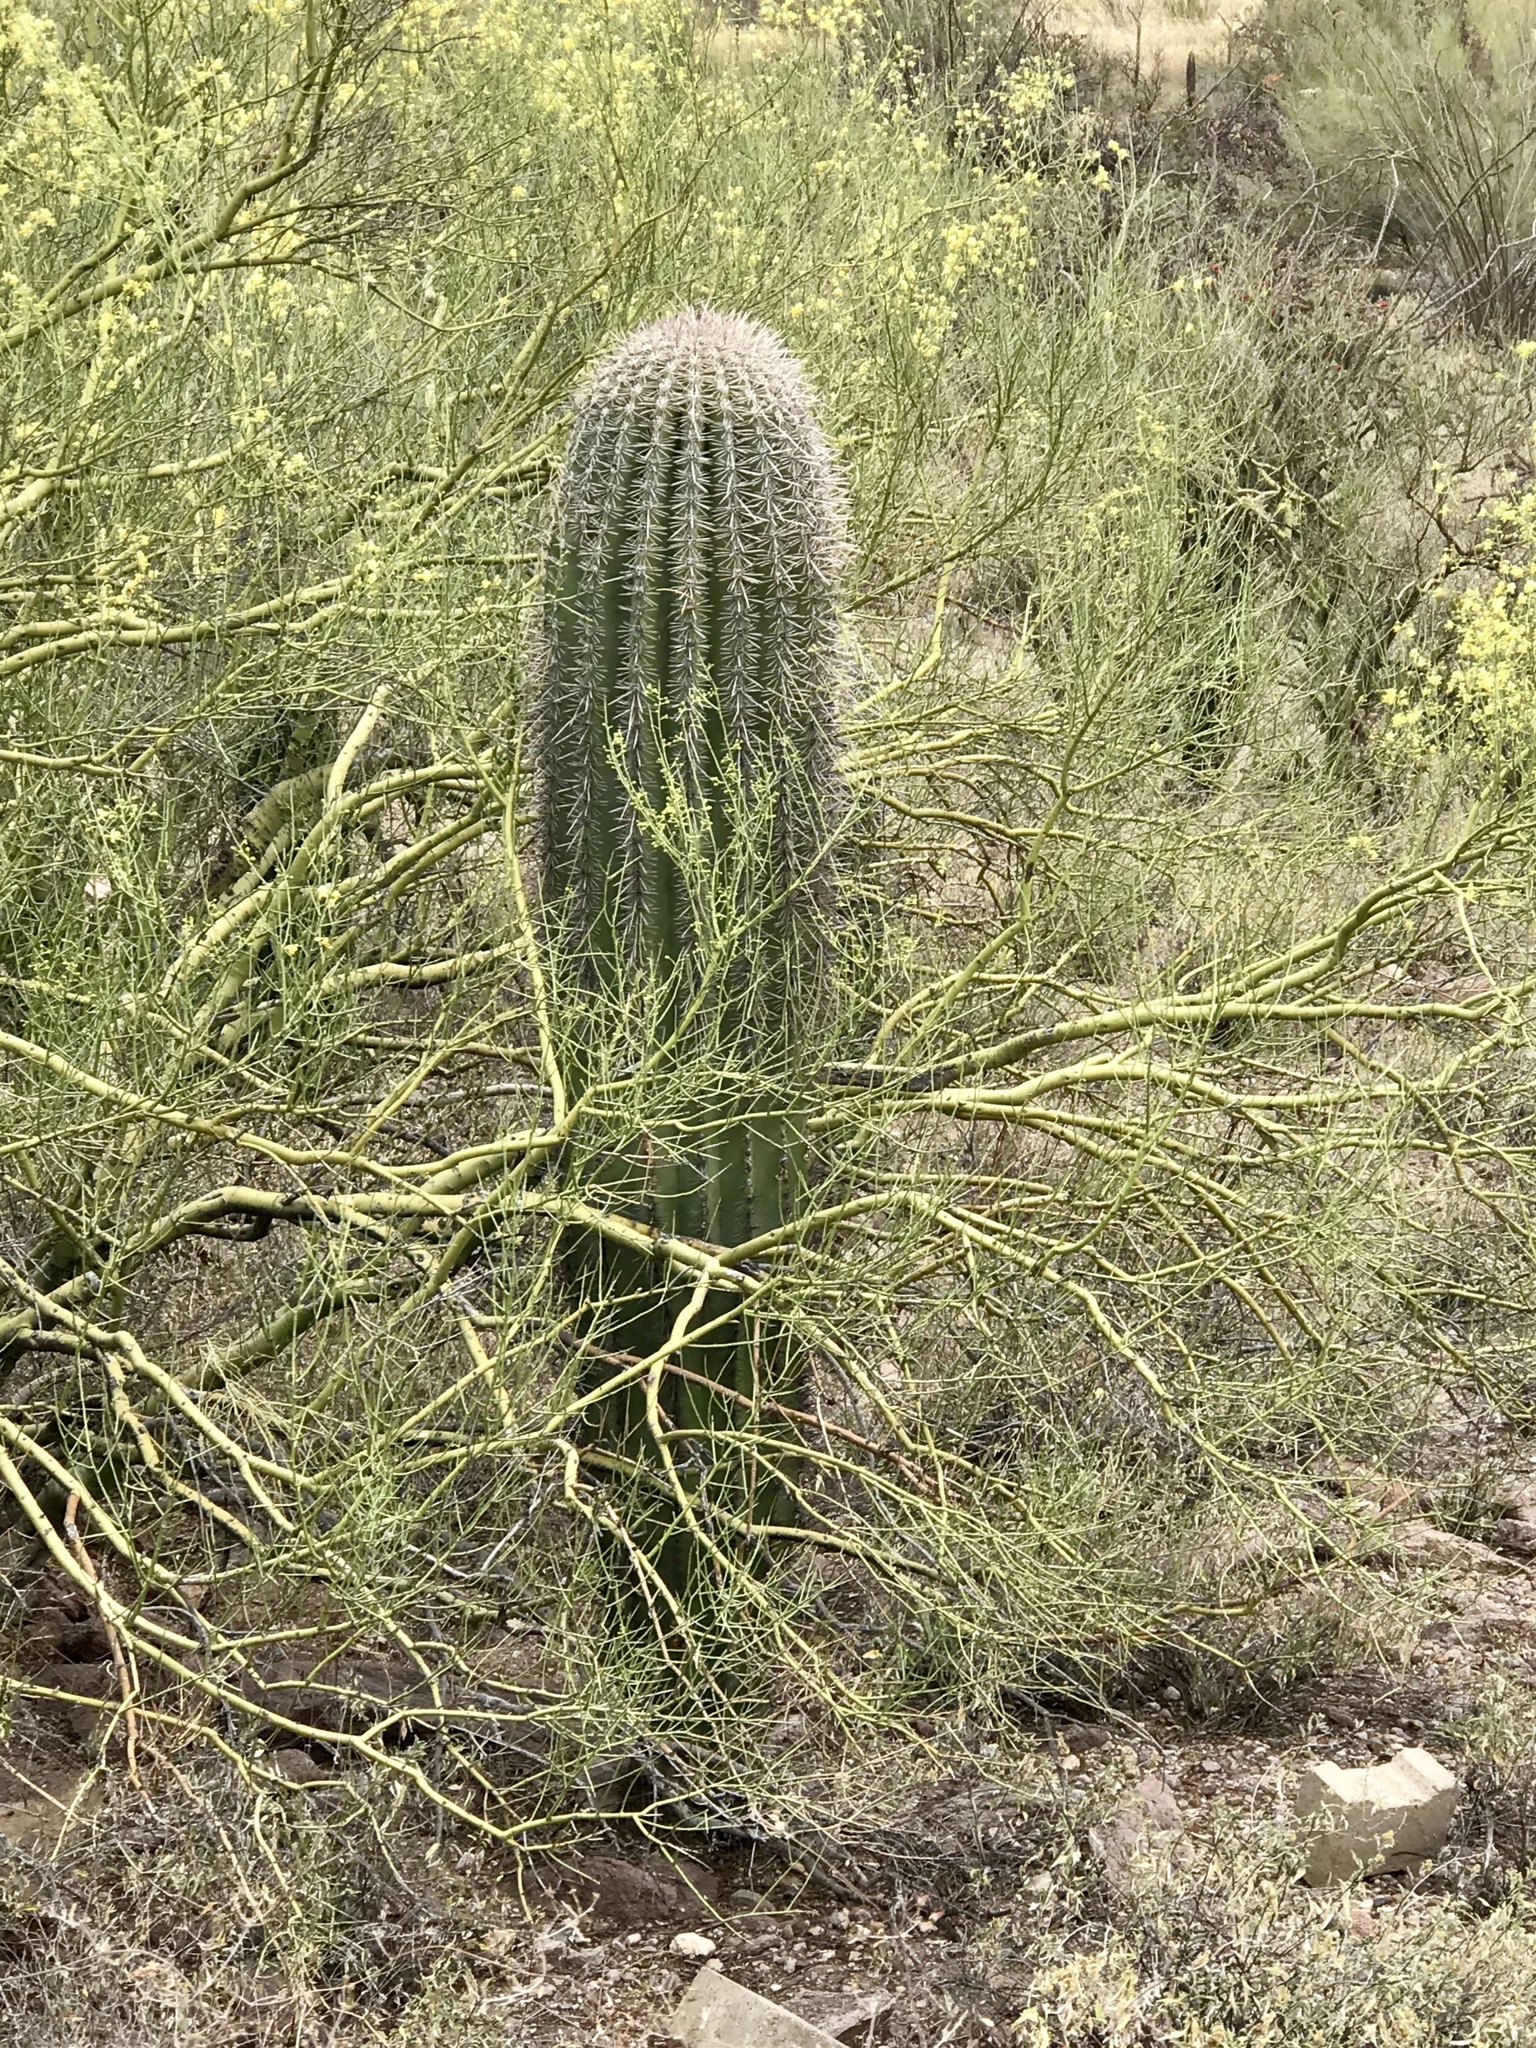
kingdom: Plantae
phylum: Tracheophyta
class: Magnoliopsida
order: Caryophyllales
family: Cactaceae
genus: Carnegiea
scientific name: Carnegiea gigantea
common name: Saguaro
